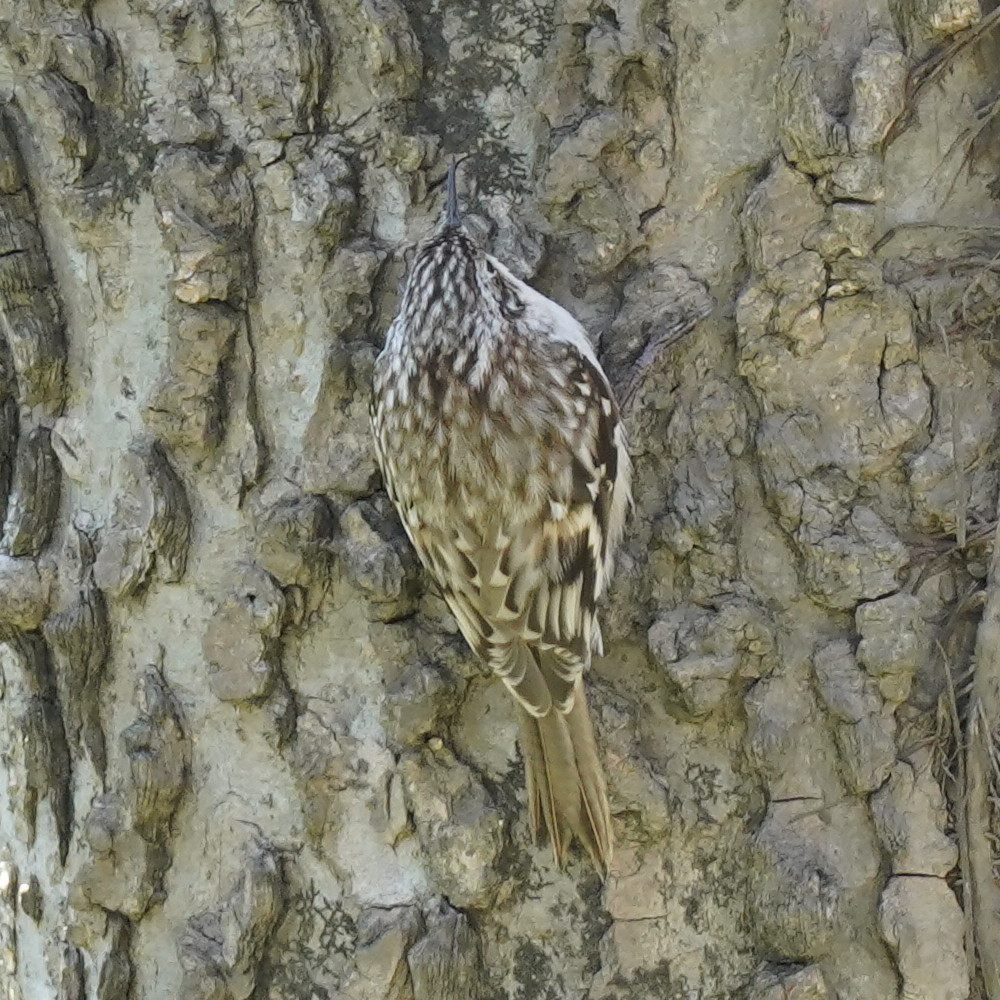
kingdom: Animalia
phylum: Chordata
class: Aves
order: Passeriformes
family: Certhiidae
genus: Certhia
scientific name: Certhia americana
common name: Brown creeper
